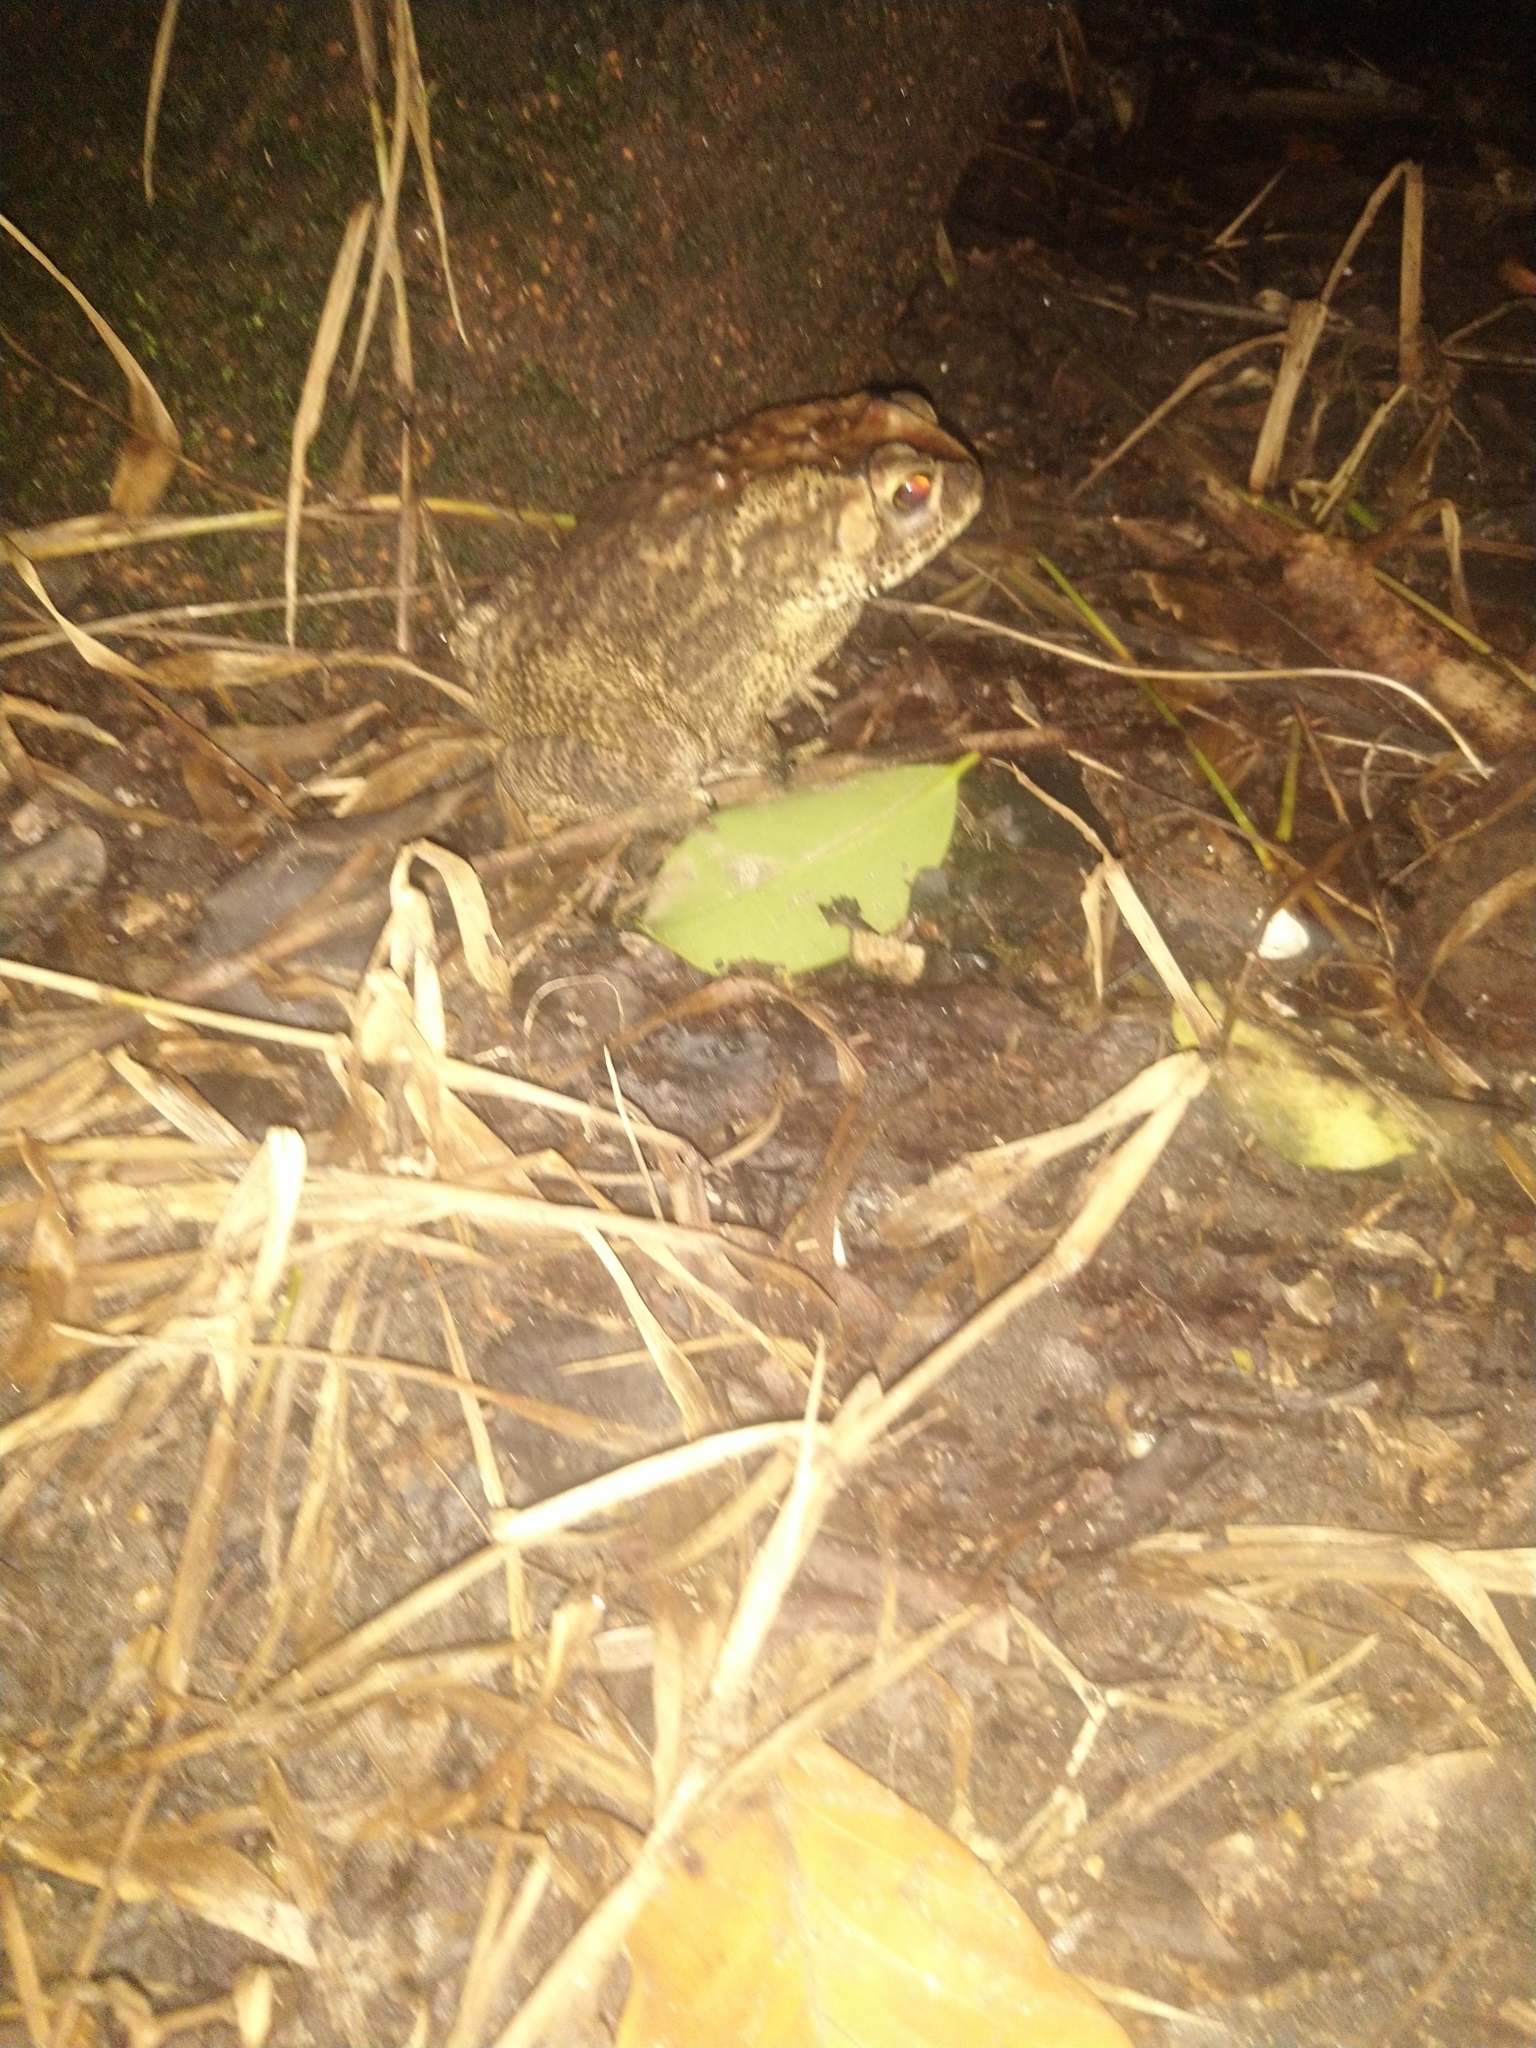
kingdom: Animalia
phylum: Chordata
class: Amphibia
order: Anura
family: Bufonidae
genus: Duttaphrynus
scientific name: Duttaphrynus melanostictus
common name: Common sunda toad
